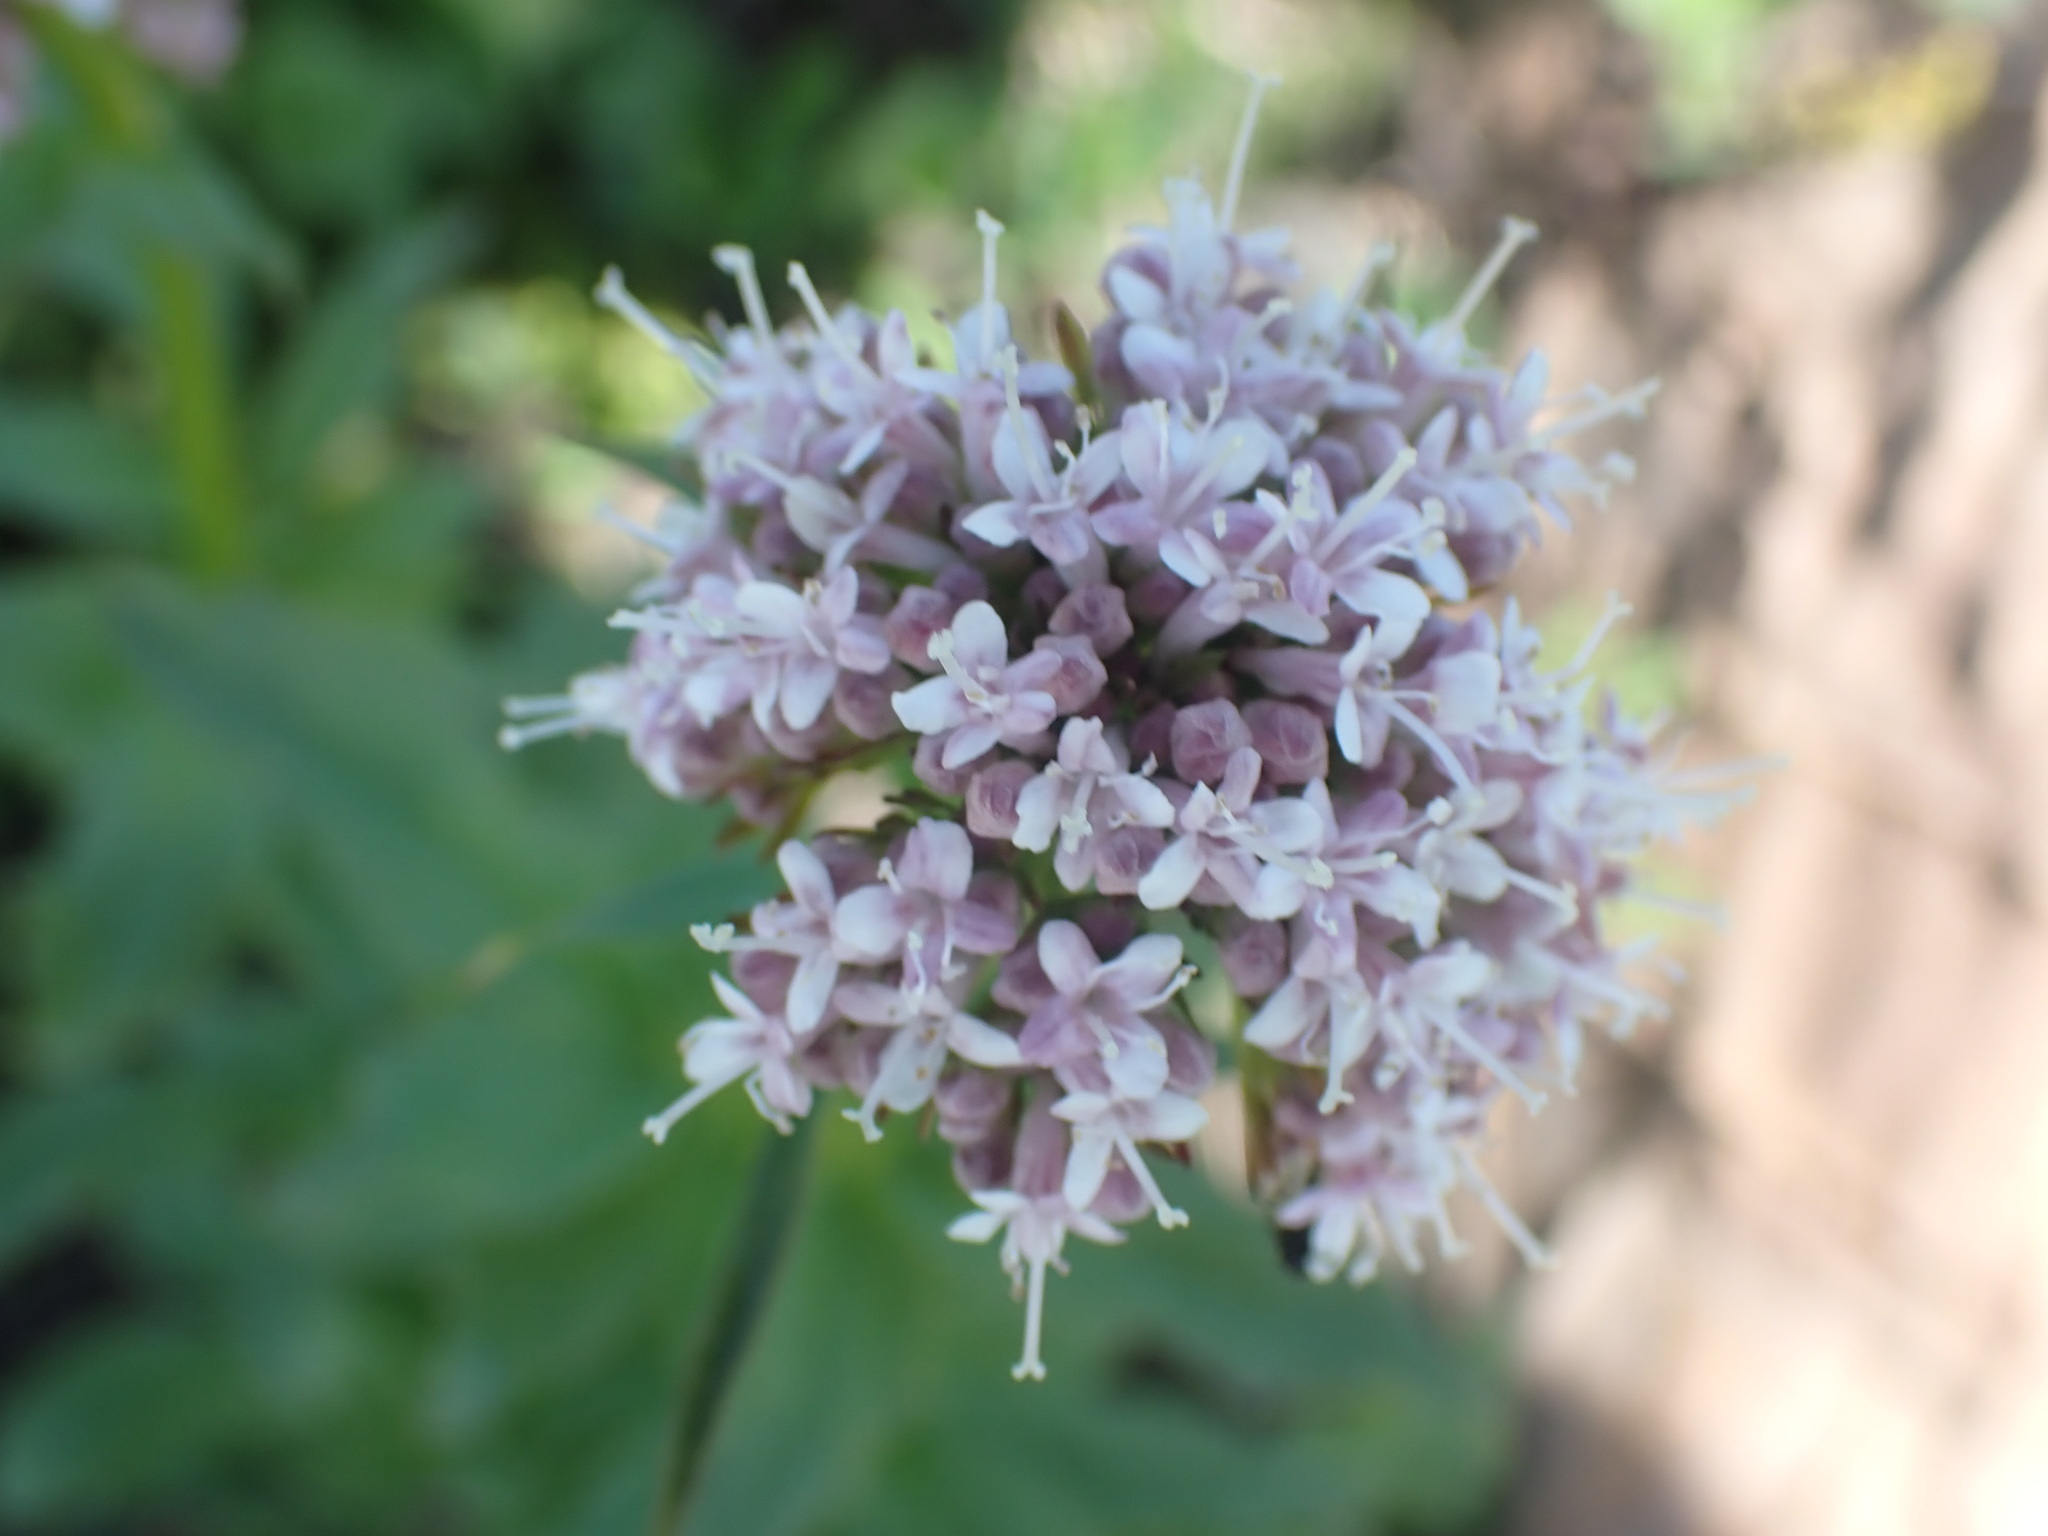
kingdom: Plantae
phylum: Tracheophyta
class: Magnoliopsida
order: Dipsacales
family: Caprifoliaceae
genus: Valeriana
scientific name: Valeriana sitchensis
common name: Pacific valerian
